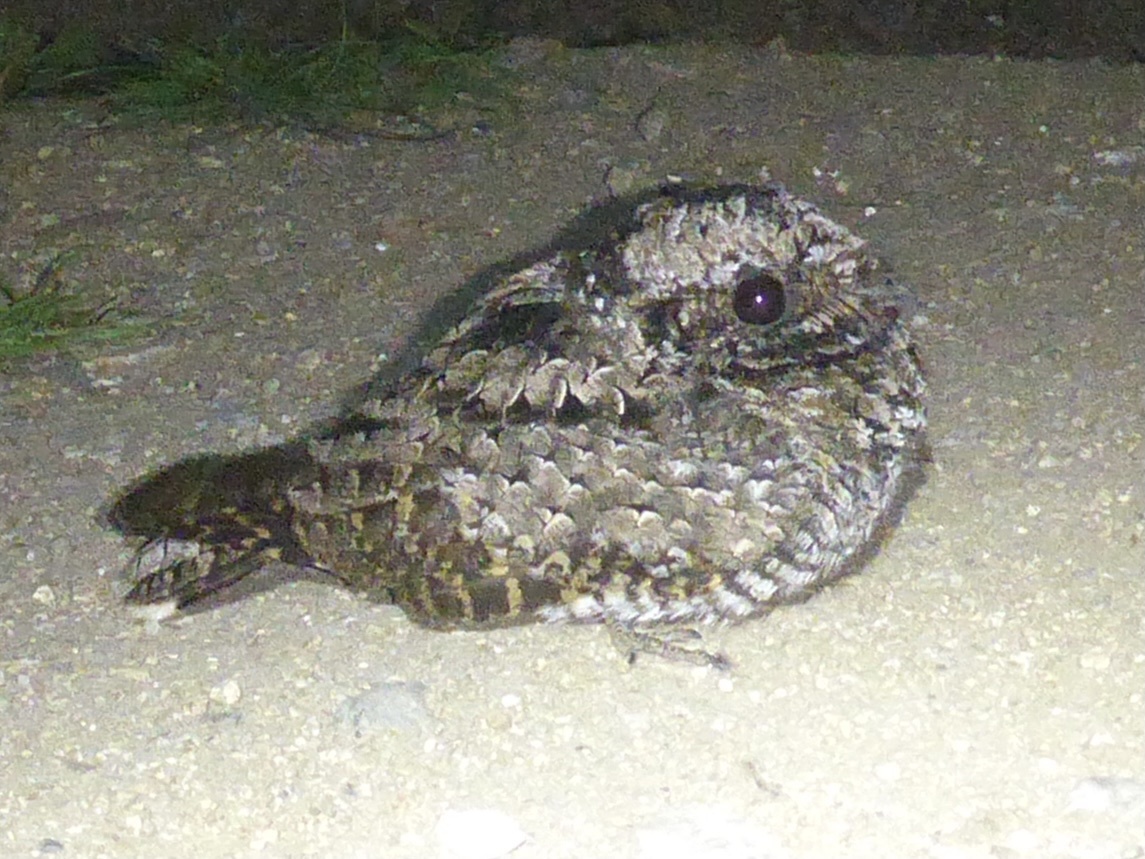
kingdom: Animalia
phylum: Chordata
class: Aves
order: Caprimulgiformes
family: Caprimulgidae
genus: Phalaenoptilus
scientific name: Phalaenoptilus nuttallii
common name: Common poorwill
